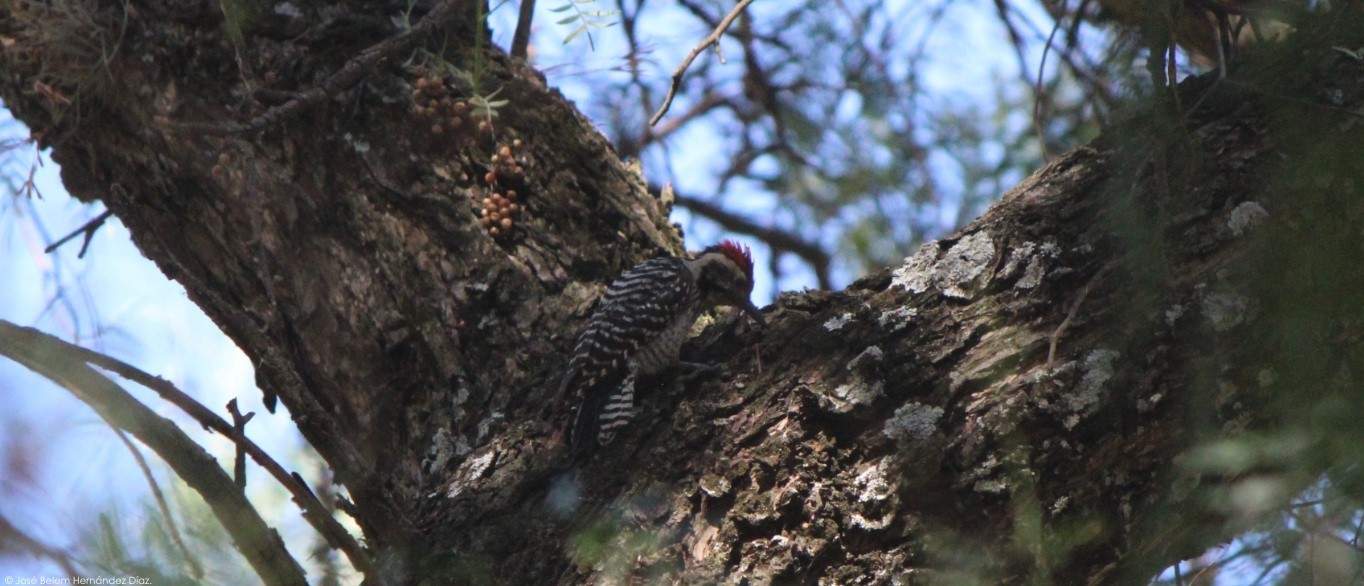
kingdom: Animalia
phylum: Chordata
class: Aves
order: Piciformes
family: Picidae
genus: Dryobates
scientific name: Dryobates scalaris
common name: Ladder-backed woodpecker
